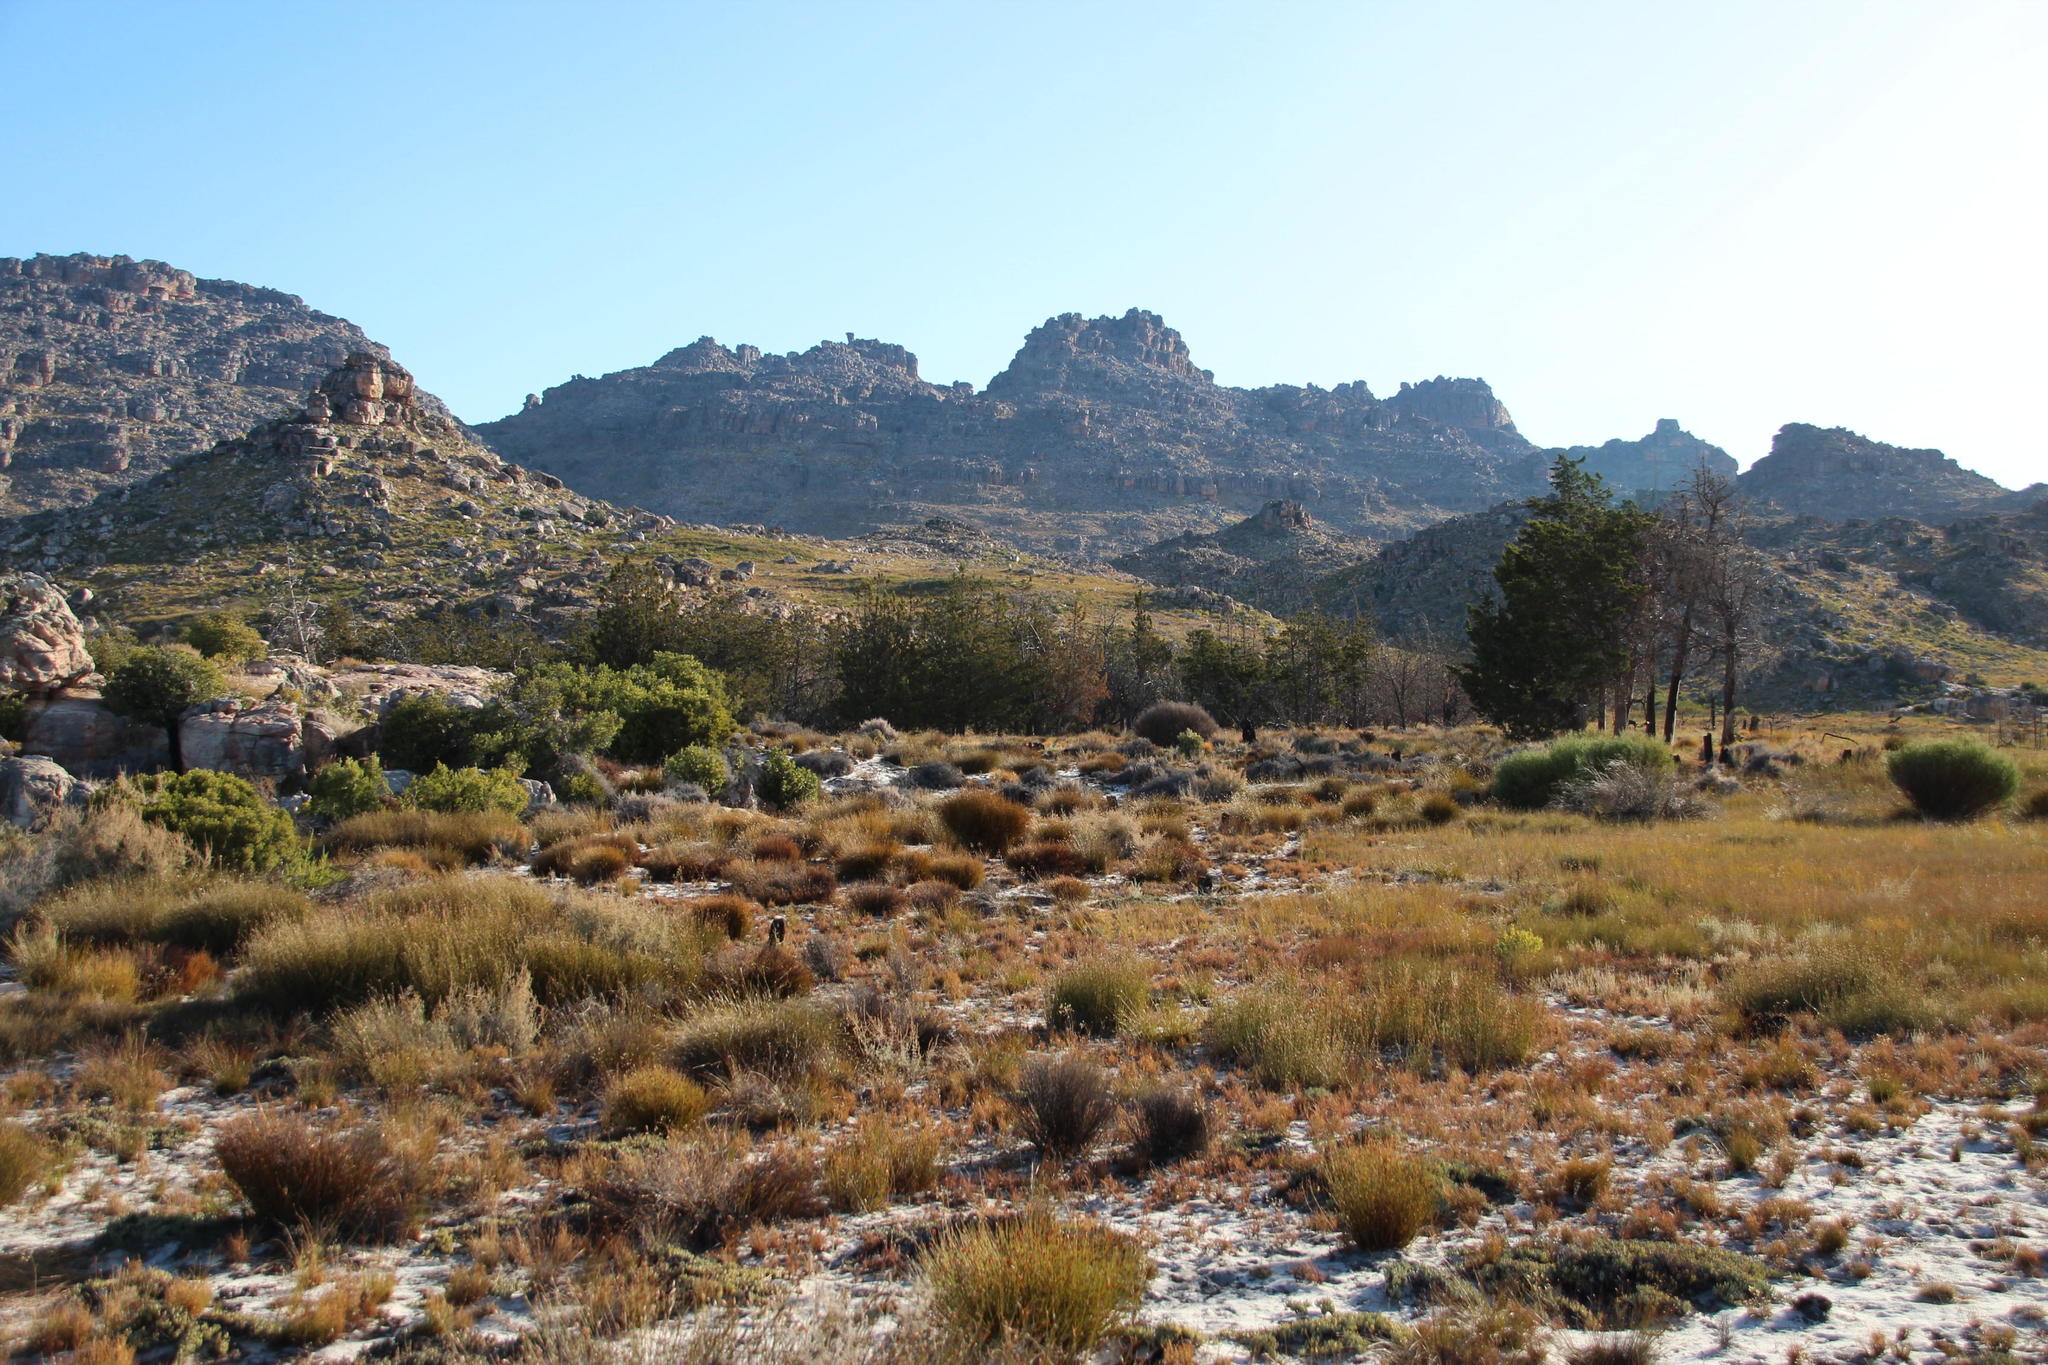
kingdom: Plantae
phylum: Tracheophyta
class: Pinopsida
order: Pinales
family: Cupressaceae
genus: Widdringtonia
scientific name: Widdringtonia nodiflora
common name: Cape cypress
